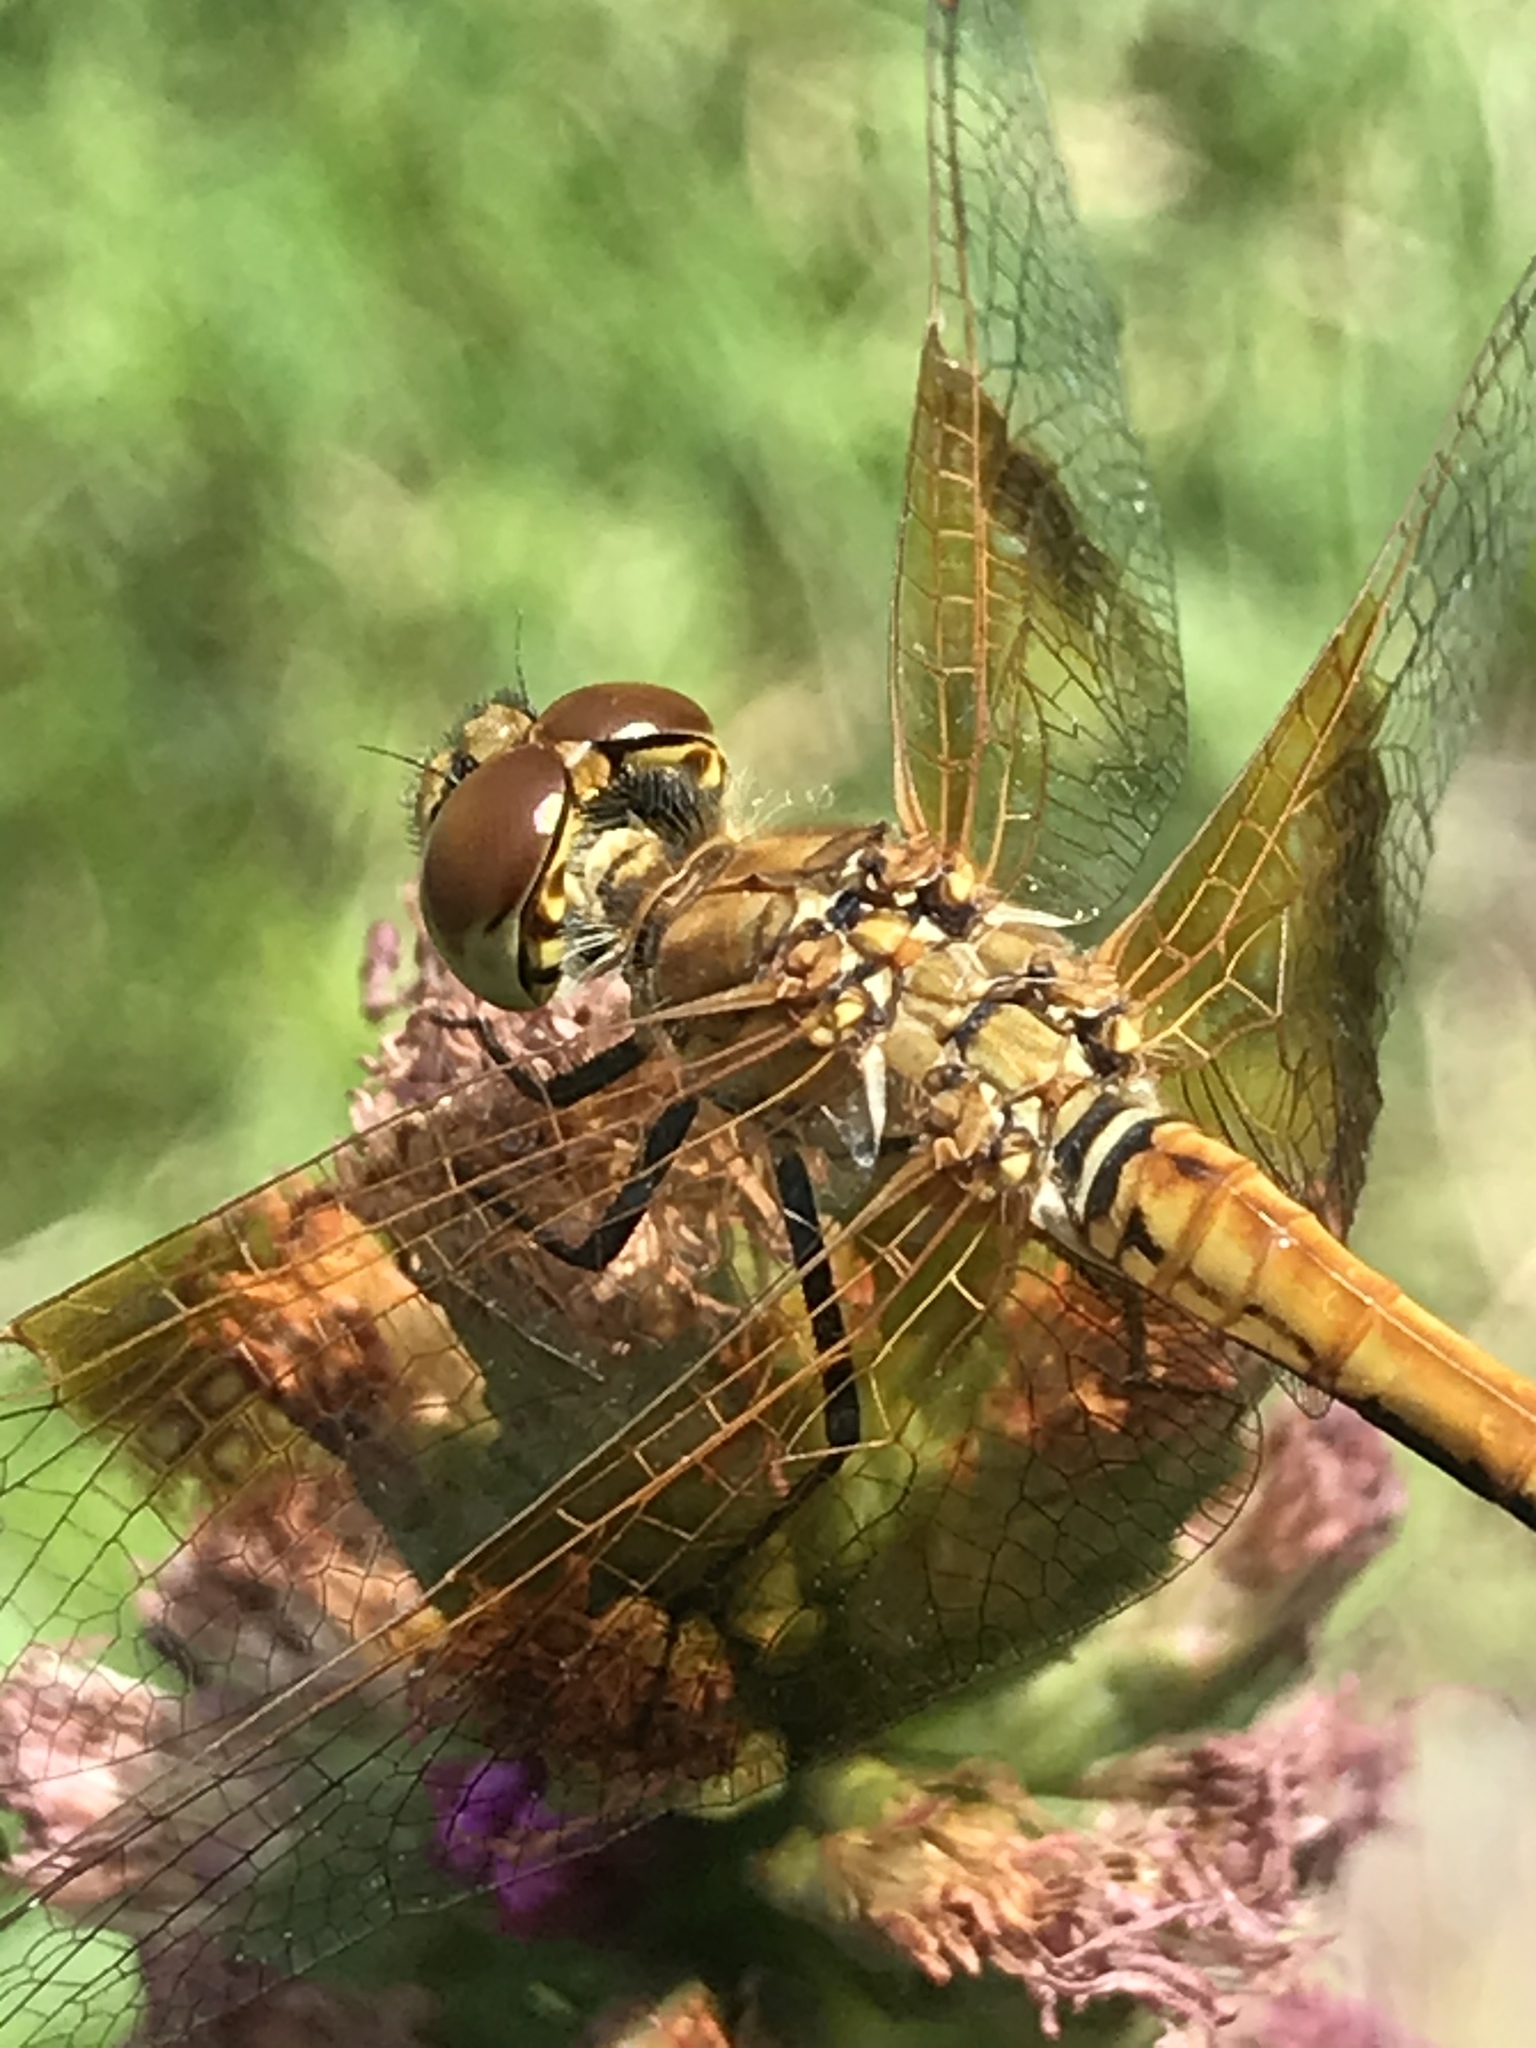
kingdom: Animalia
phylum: Arthropoda
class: Insecta
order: Odonata
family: Libellulidae
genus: Sympetrum
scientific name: Sympetrum semicinctum
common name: Band-winged meadowhawk
